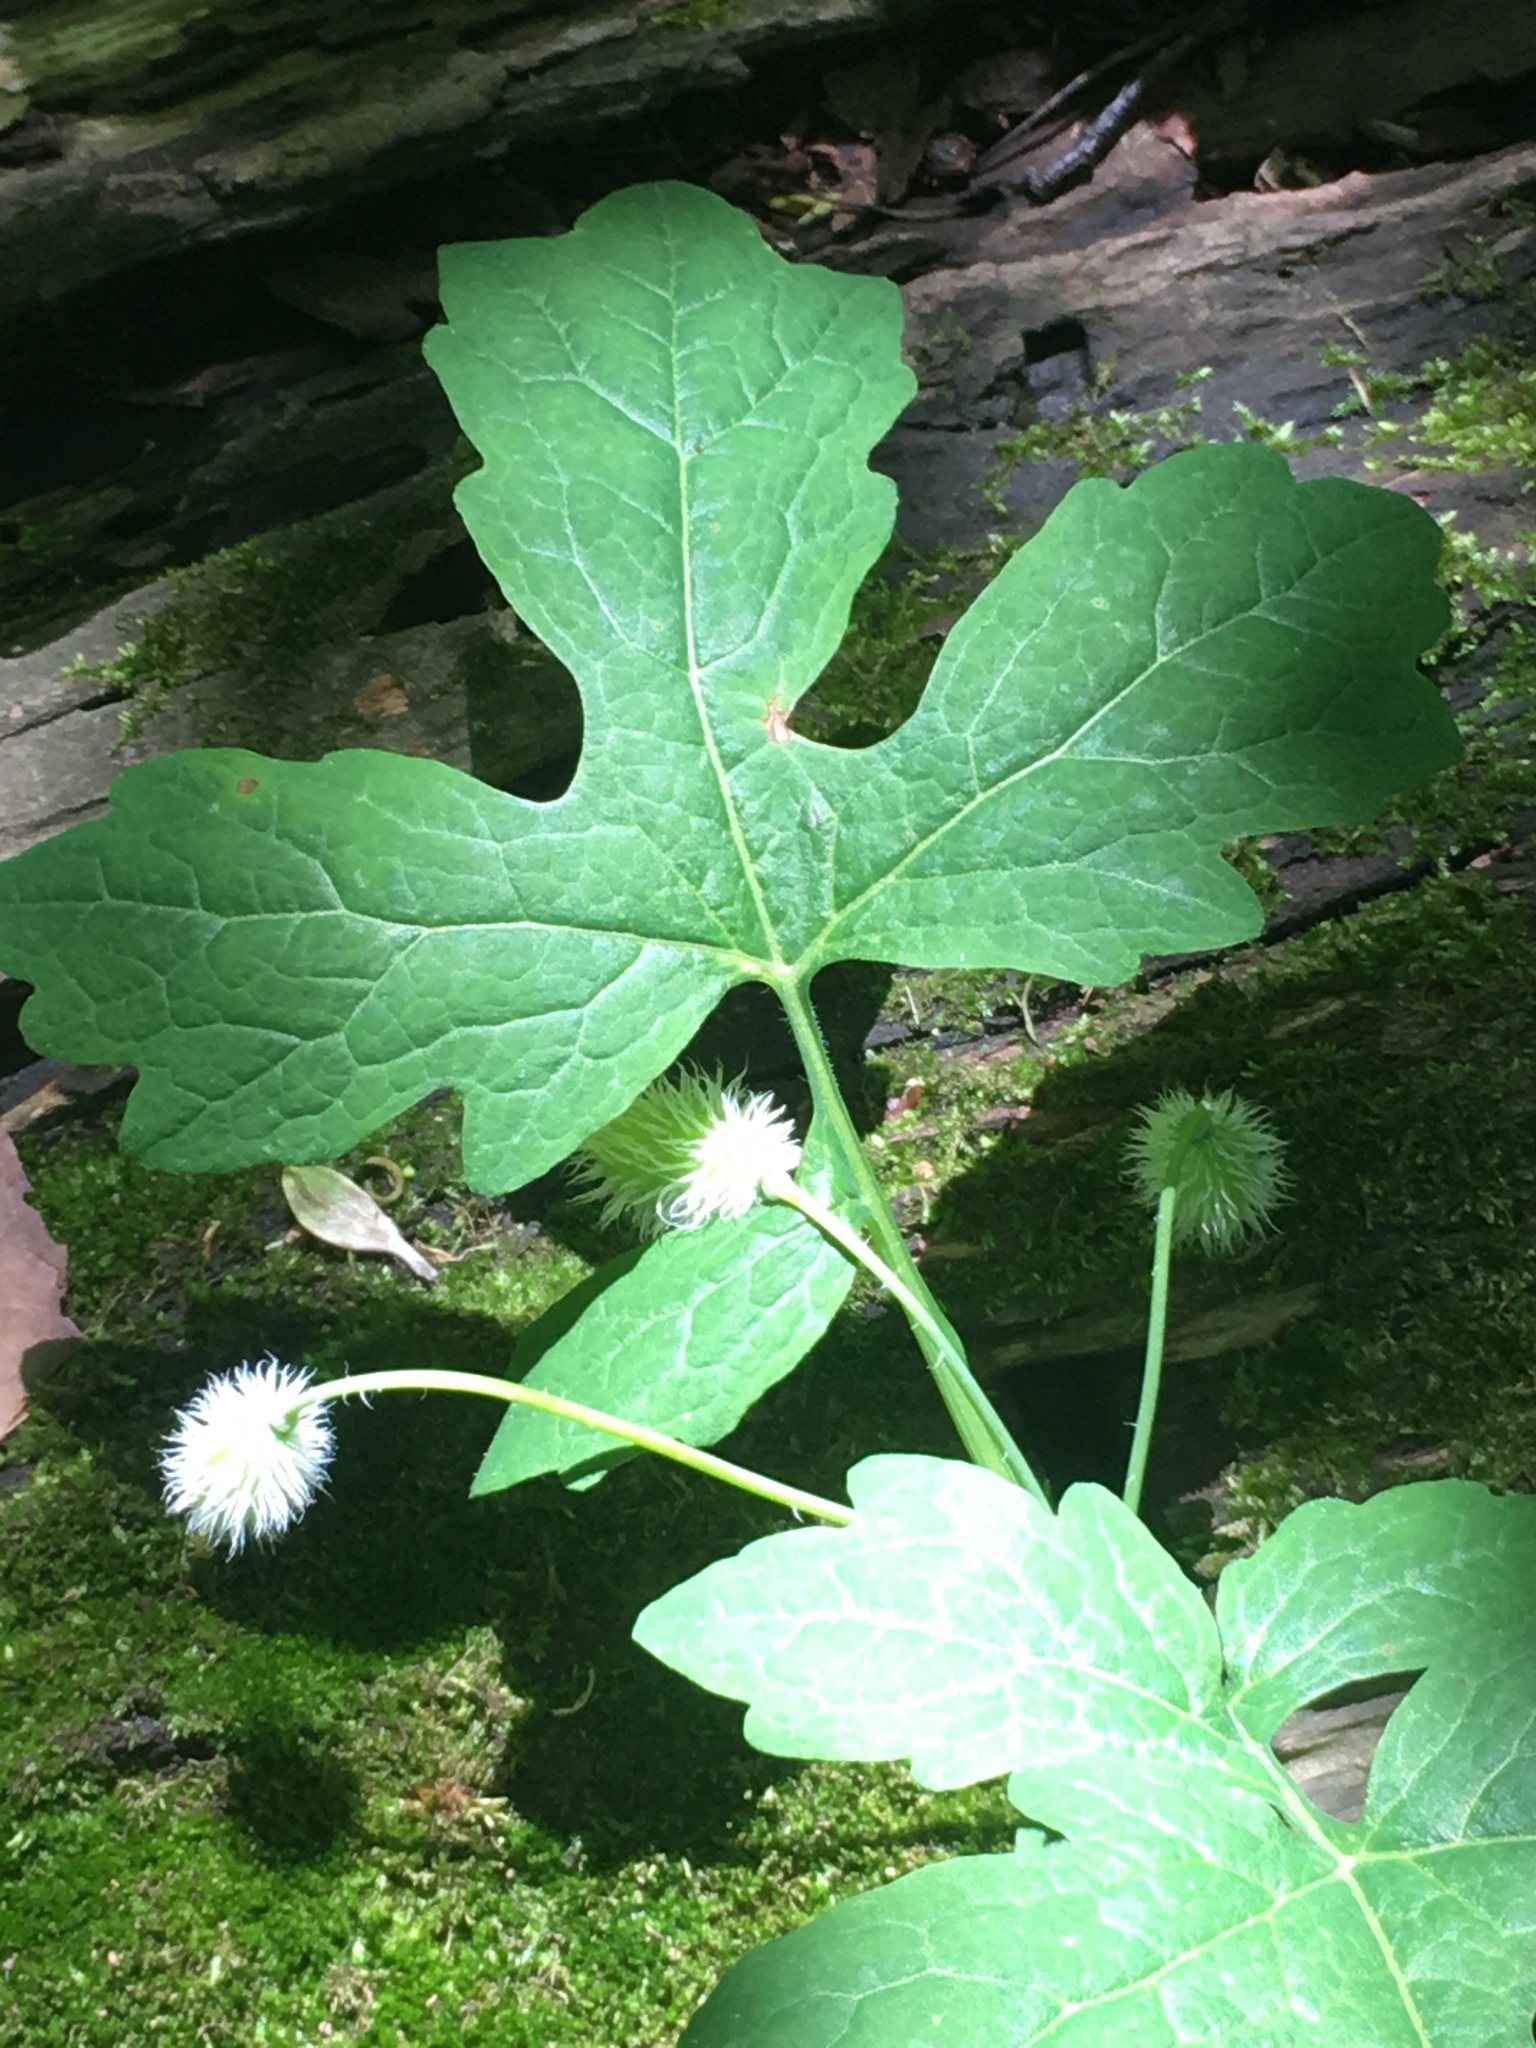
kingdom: Plantae
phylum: Tracheophyta
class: Magnoliopsida
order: Ranunculales
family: Papaveraceae
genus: Stylophorum
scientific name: Stylophorum diphyllum
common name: Celandine poppy
